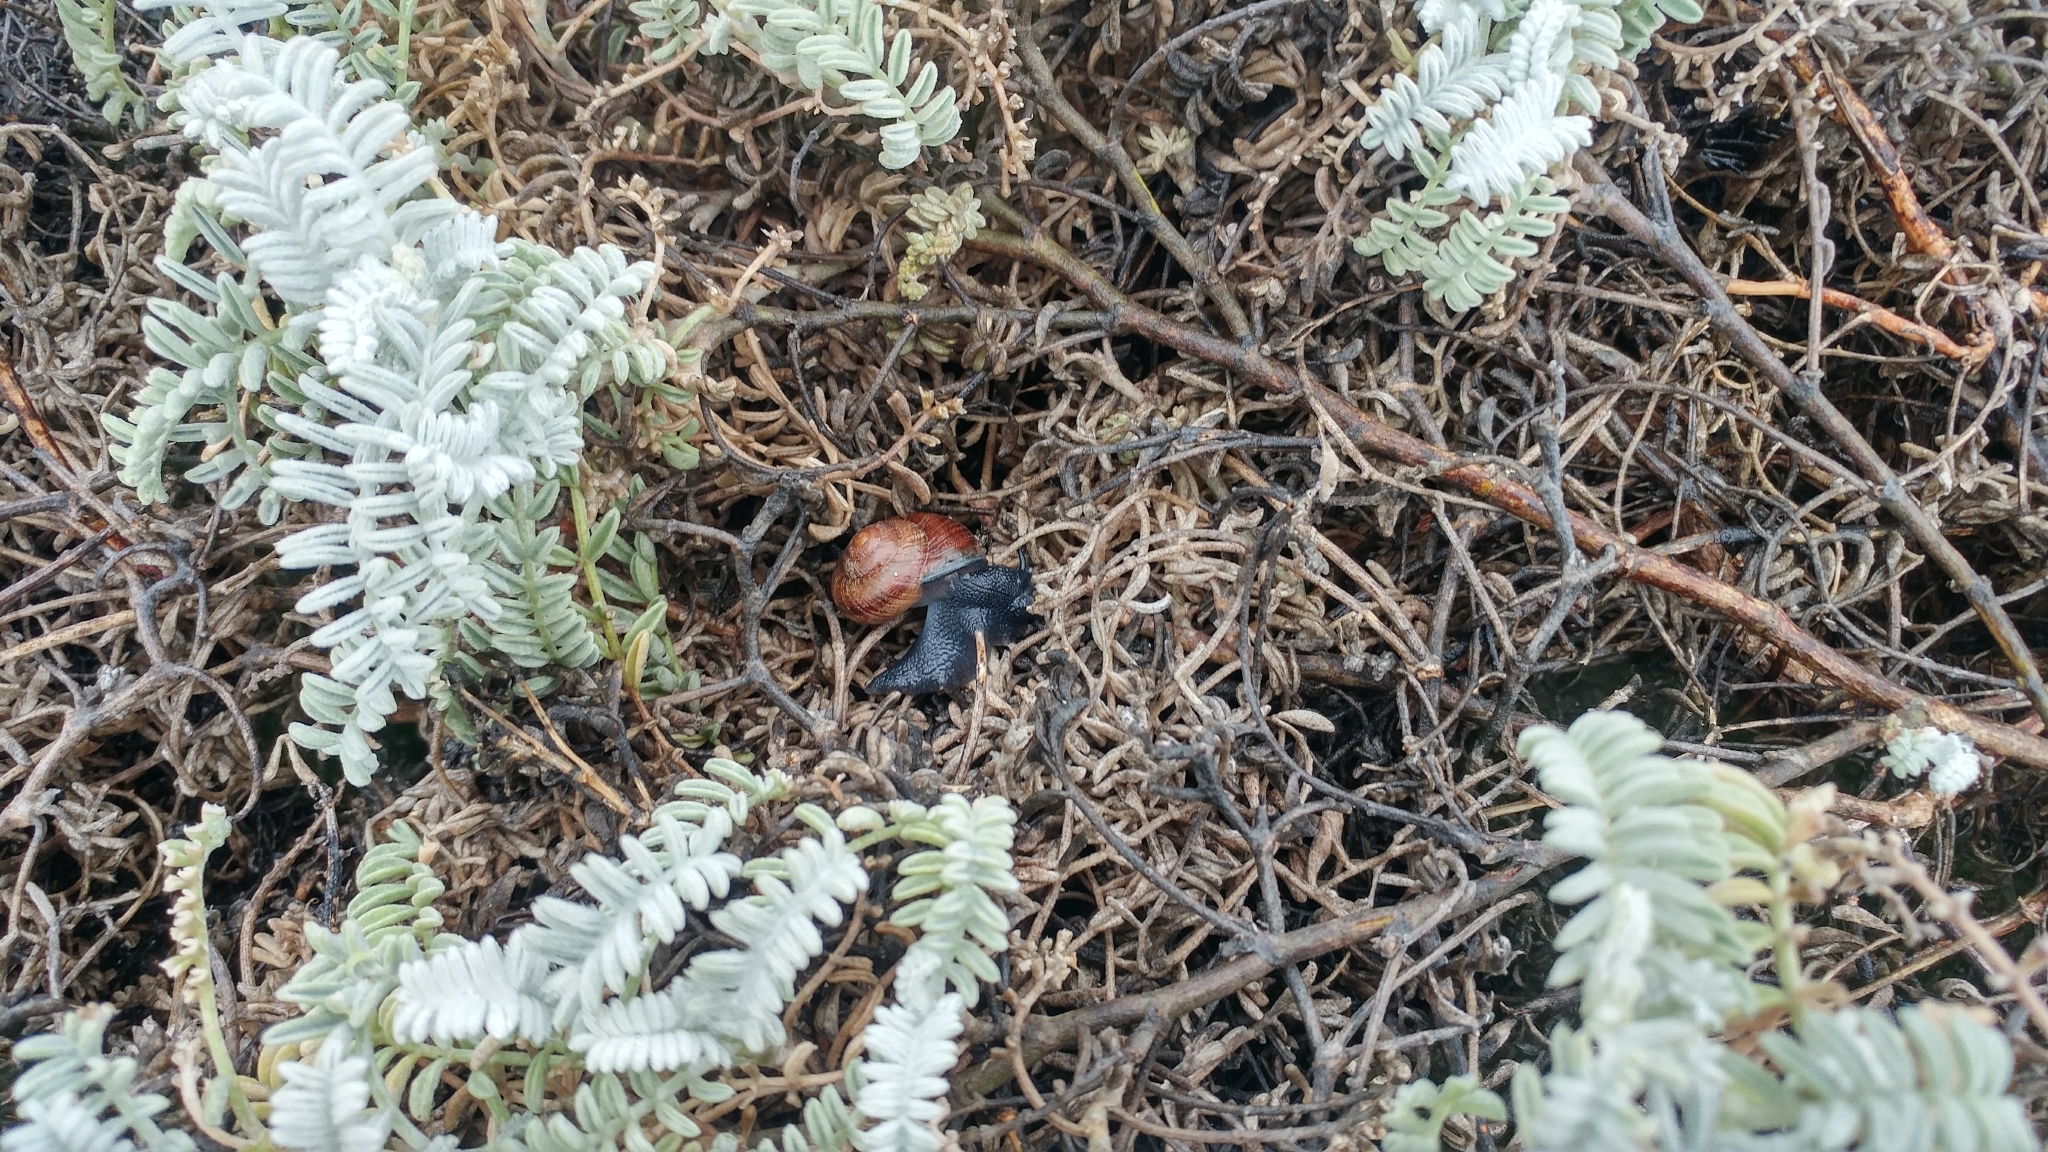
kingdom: Plantae
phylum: Tracheophyta
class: Magnoliopsida
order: Fabales
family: Fabaceae
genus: Astragalus
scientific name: Astragalus miguelensis
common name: San miguel milk-vetch
